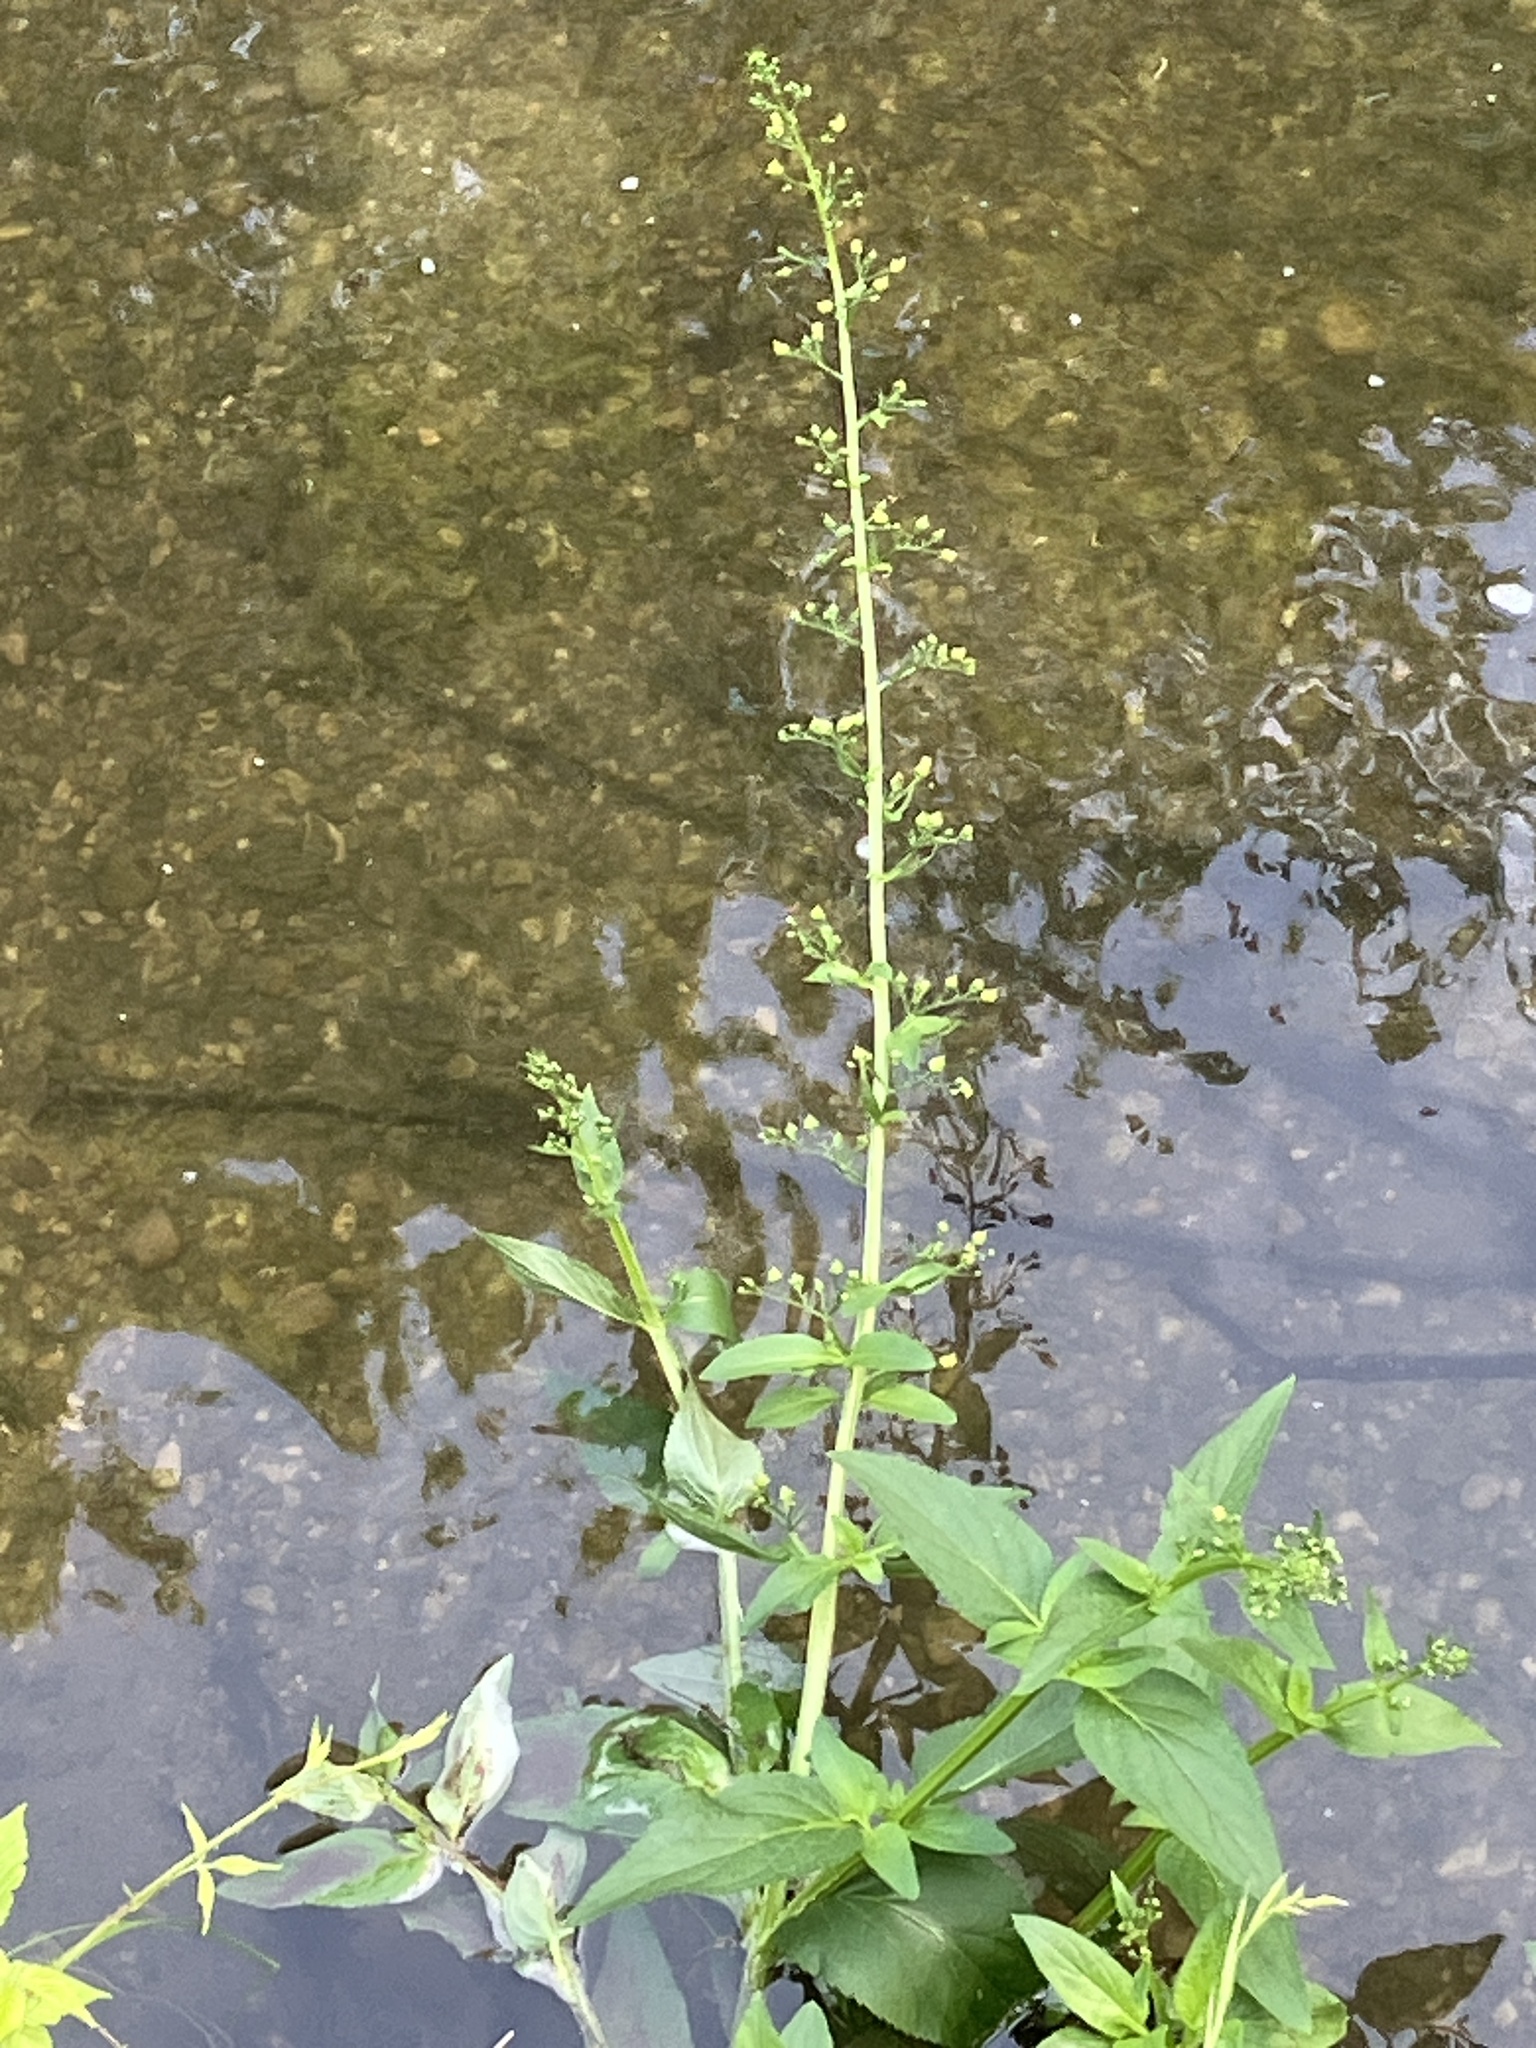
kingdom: Plantae
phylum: Tracheophyta
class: Magnoliopsida
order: Lamiales
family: Scrophulariaceae
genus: Scrophularia
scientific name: Scrophularia umbrosa
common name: Green figwort
